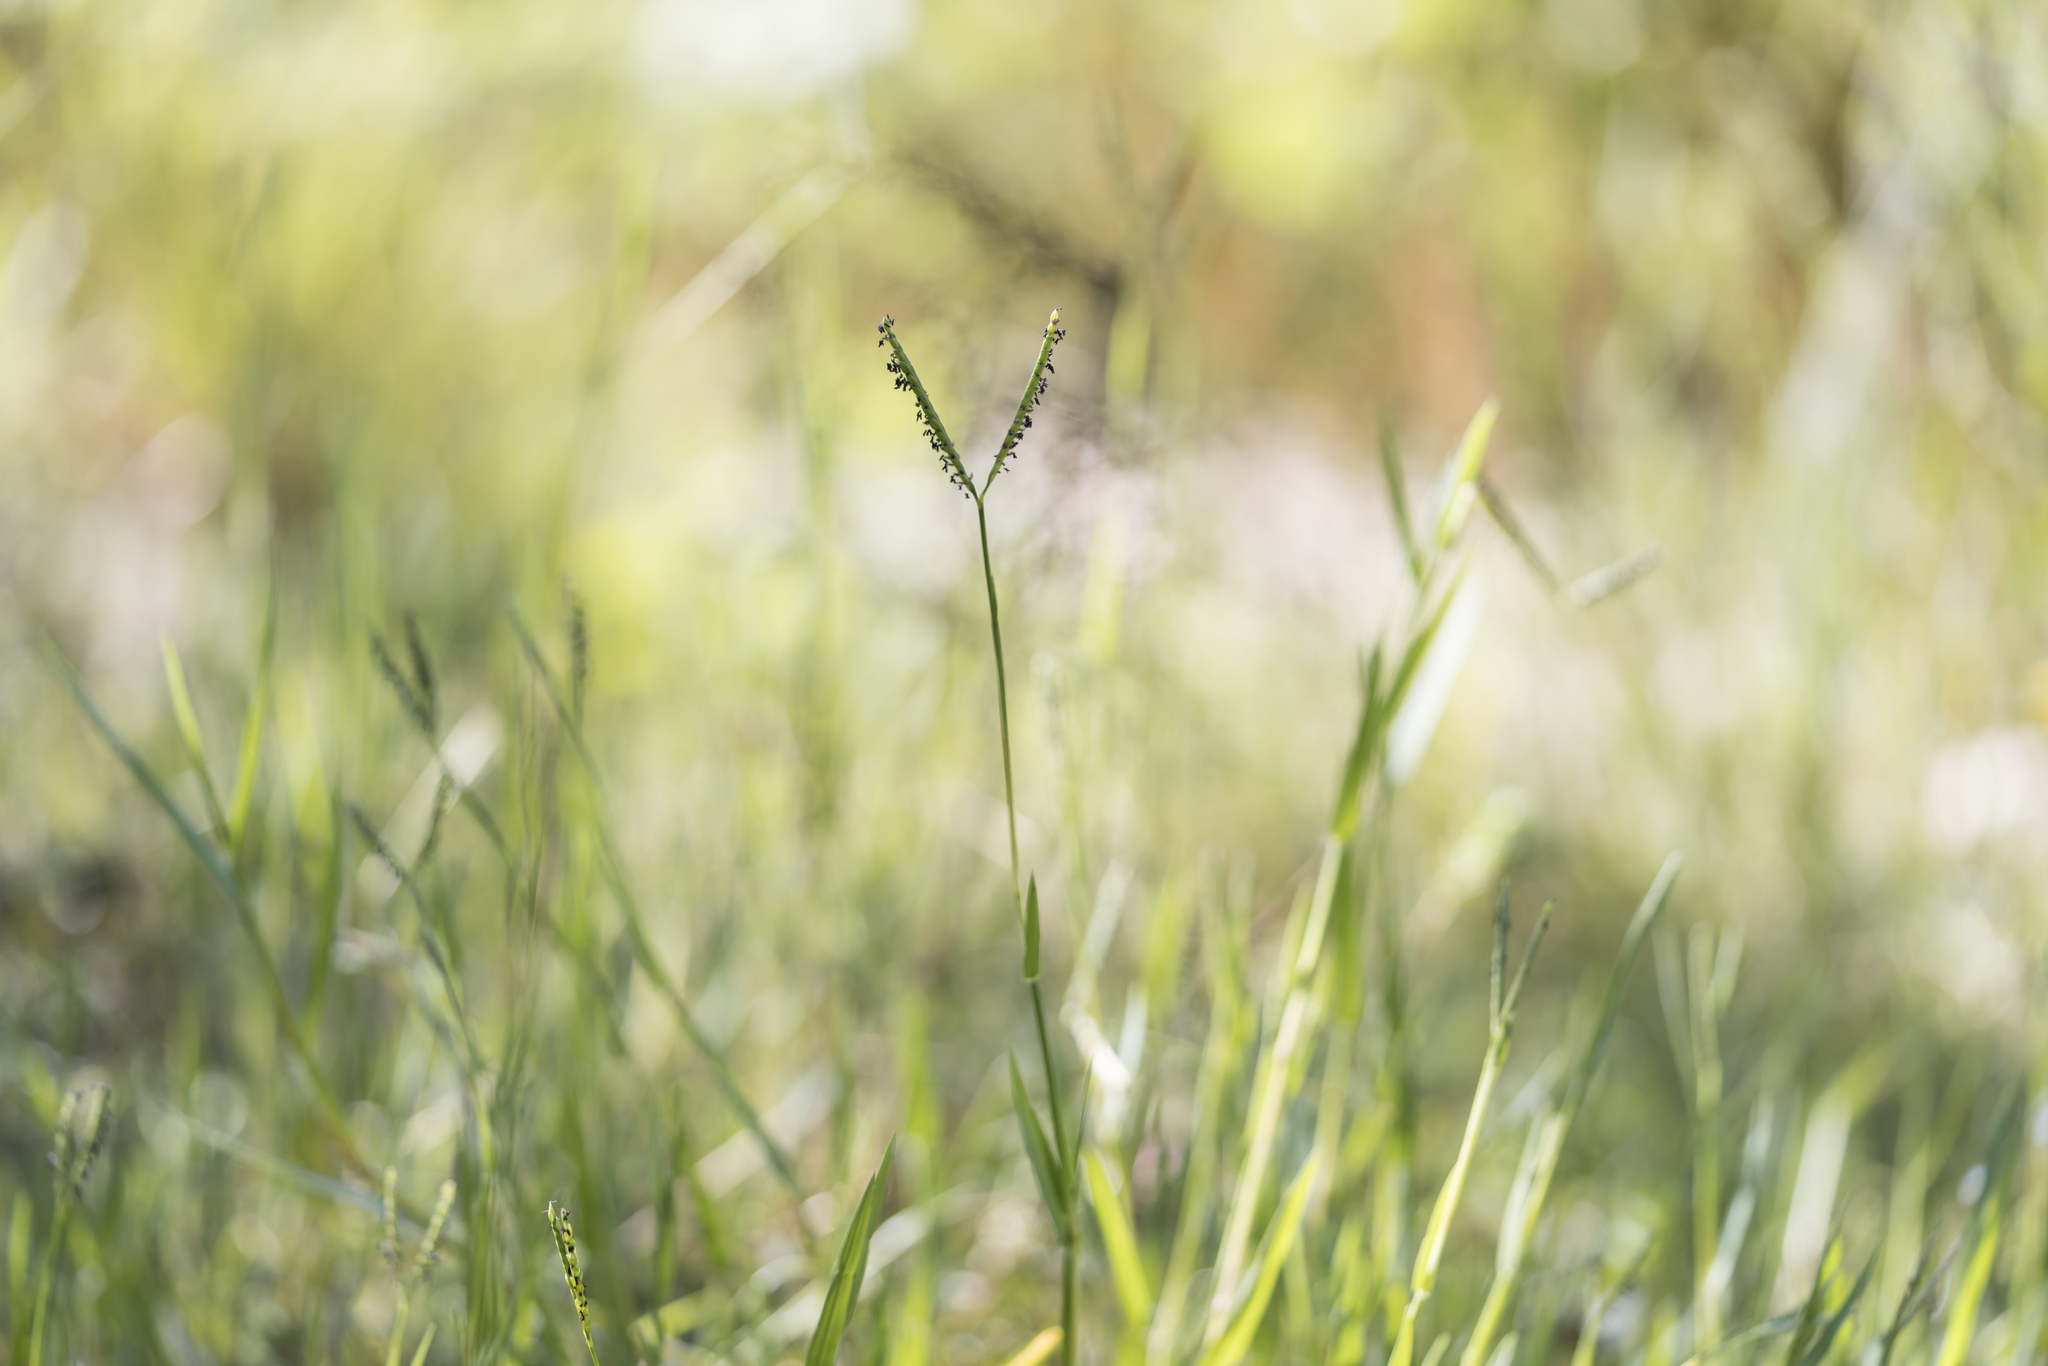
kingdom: Plantae
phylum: Tracheophyta
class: Liliopsida
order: Poales
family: Poaceae
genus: Paspalum
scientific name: Paspalum distichum
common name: Knotgrass
